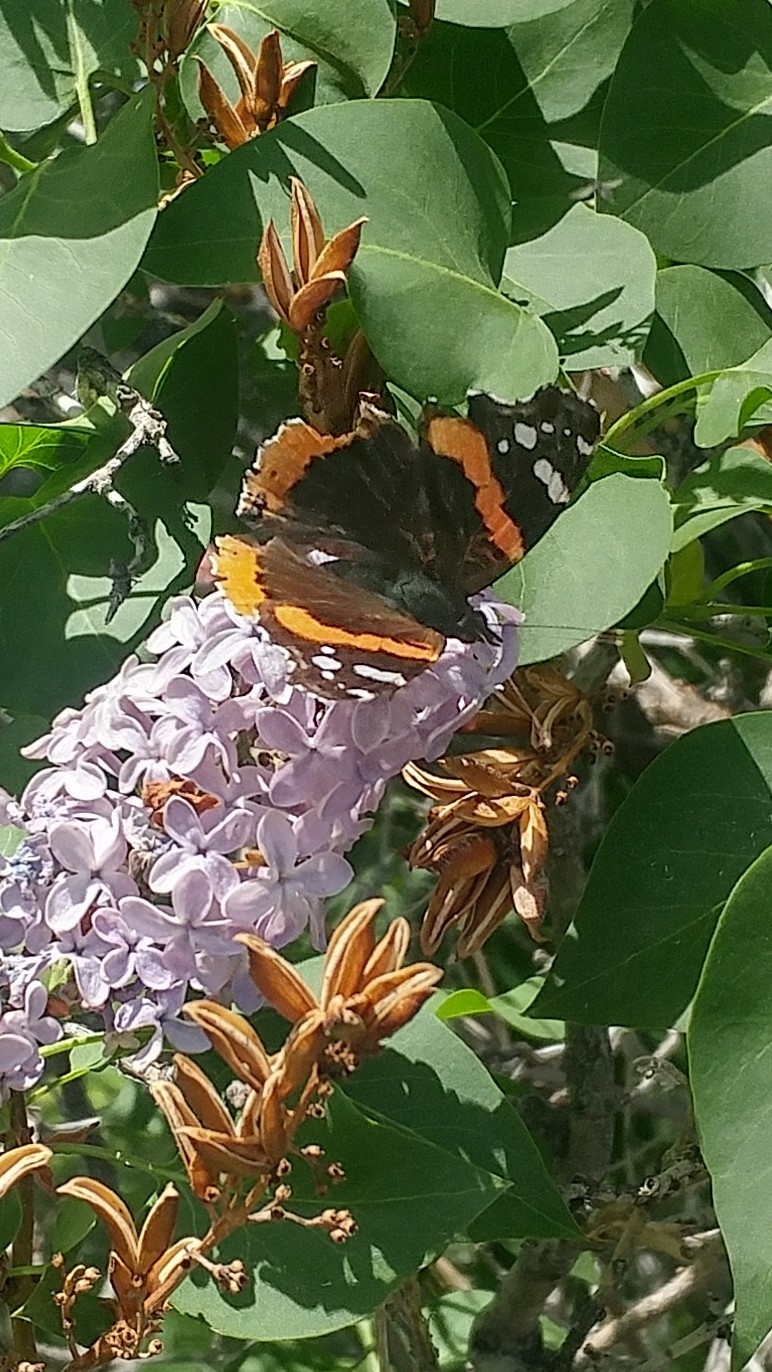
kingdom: Animalia
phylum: Arthropoda
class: Insecta
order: Lepidoptera
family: Nymphalidae
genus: Vanessa
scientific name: Vanessa atalanta
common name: Red admiral
